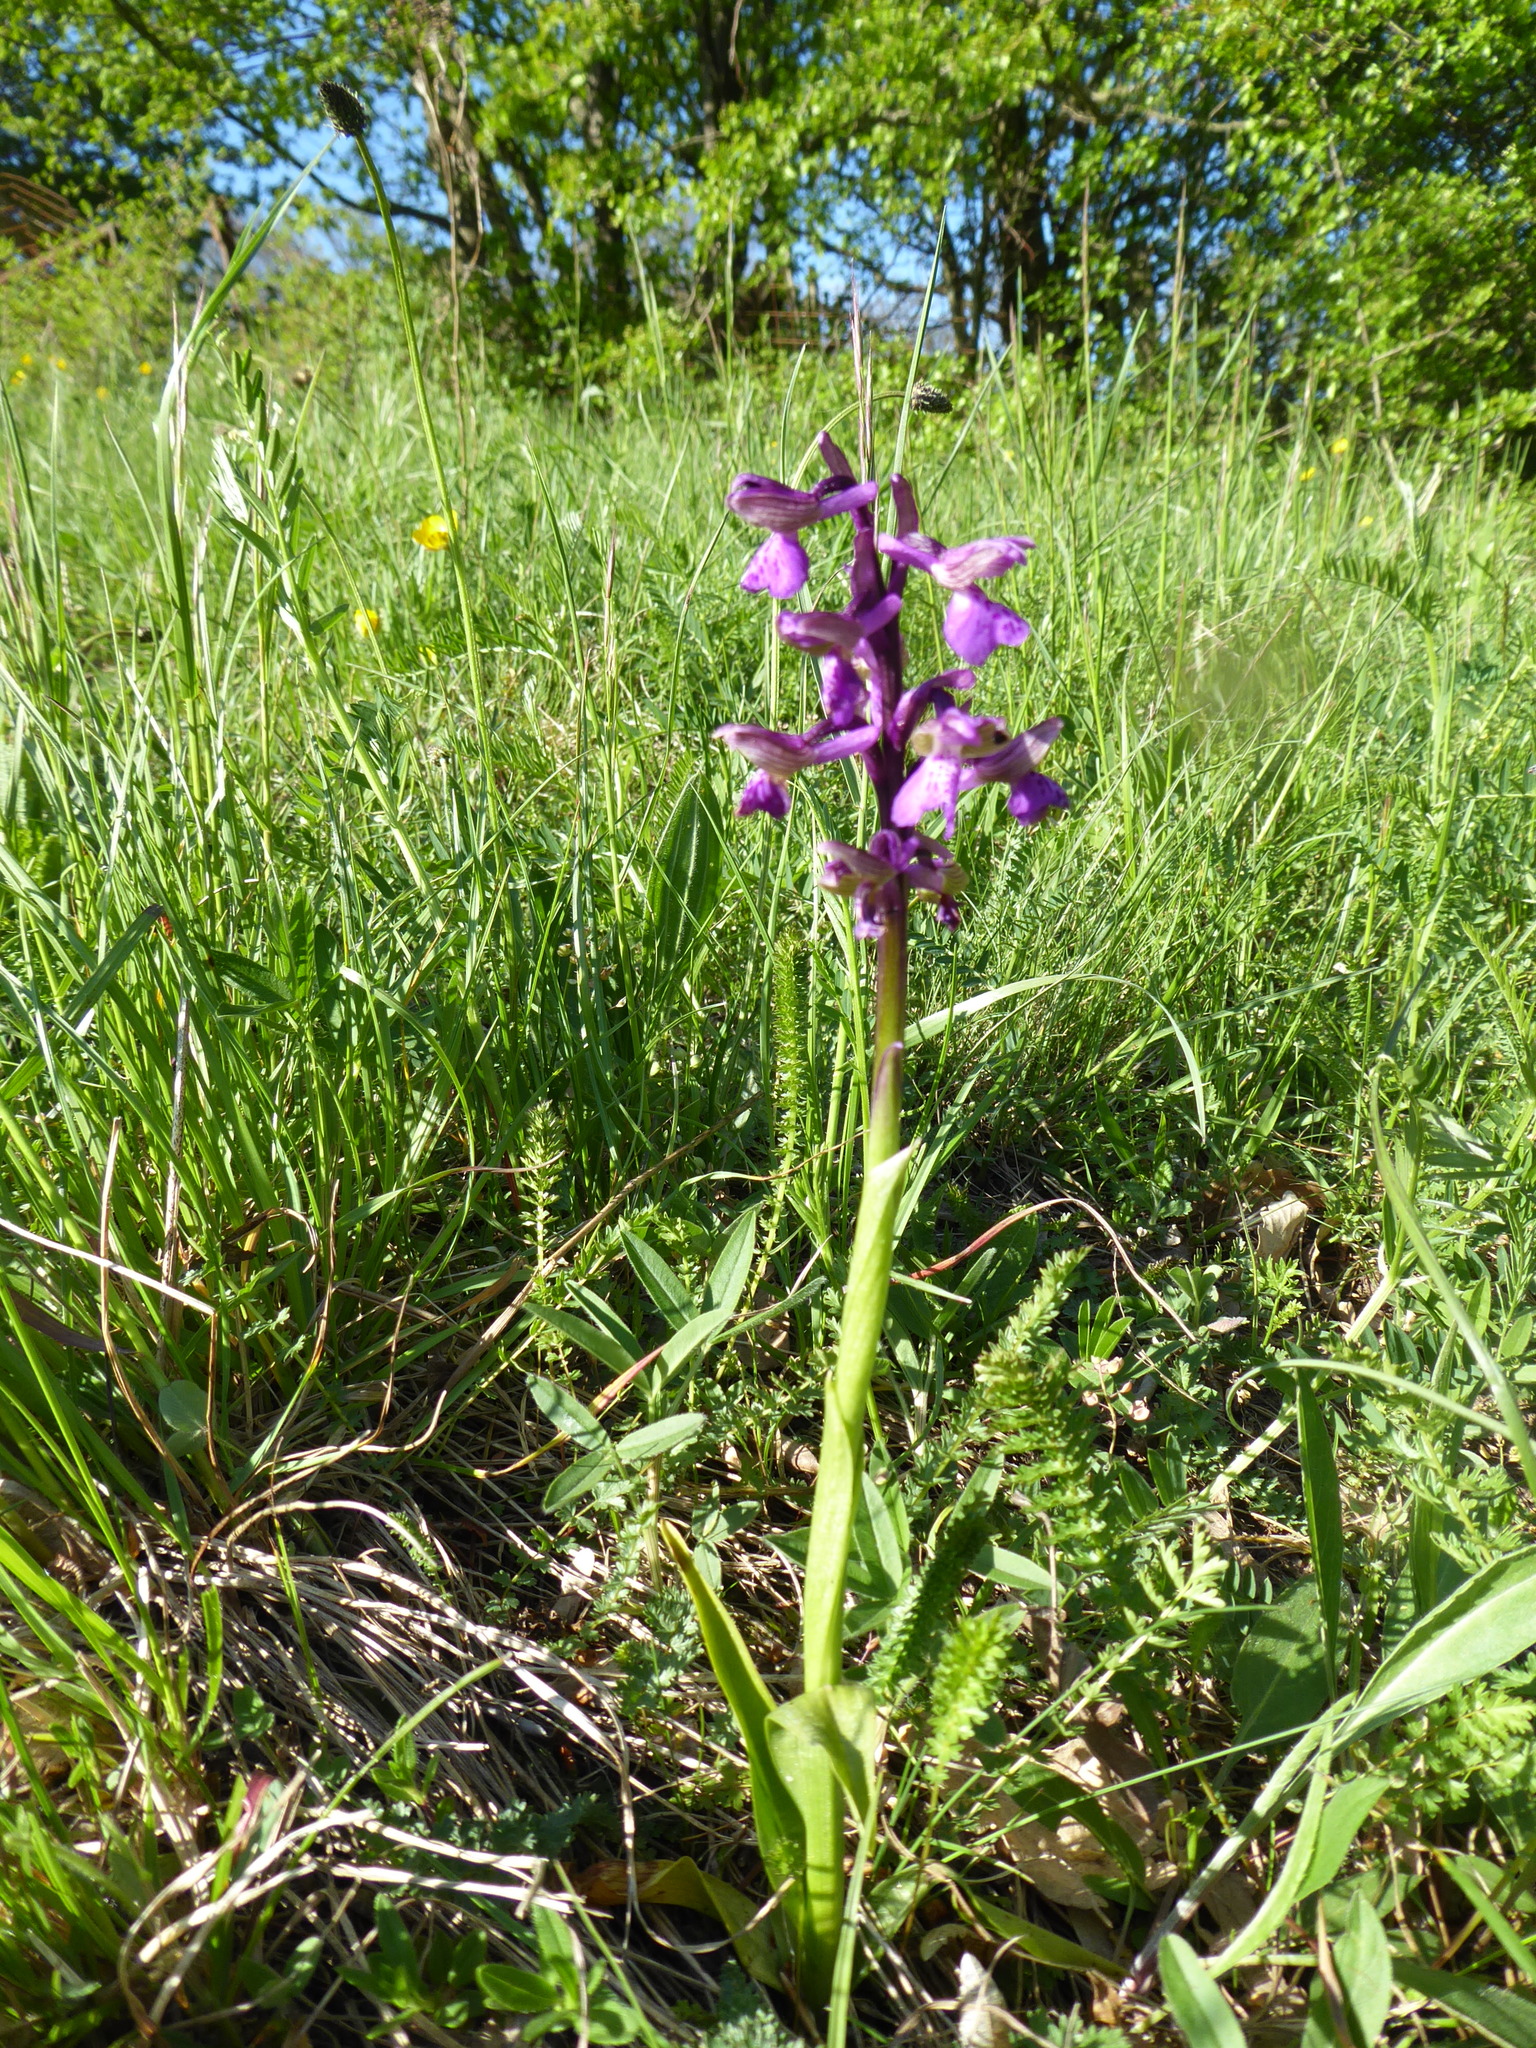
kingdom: Plantae
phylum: Tracheophyta
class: Liliopsida
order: Asparagales
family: Orchidaceae
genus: Anacamptis
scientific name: Anacamptis morio
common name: Green-winged orchid
